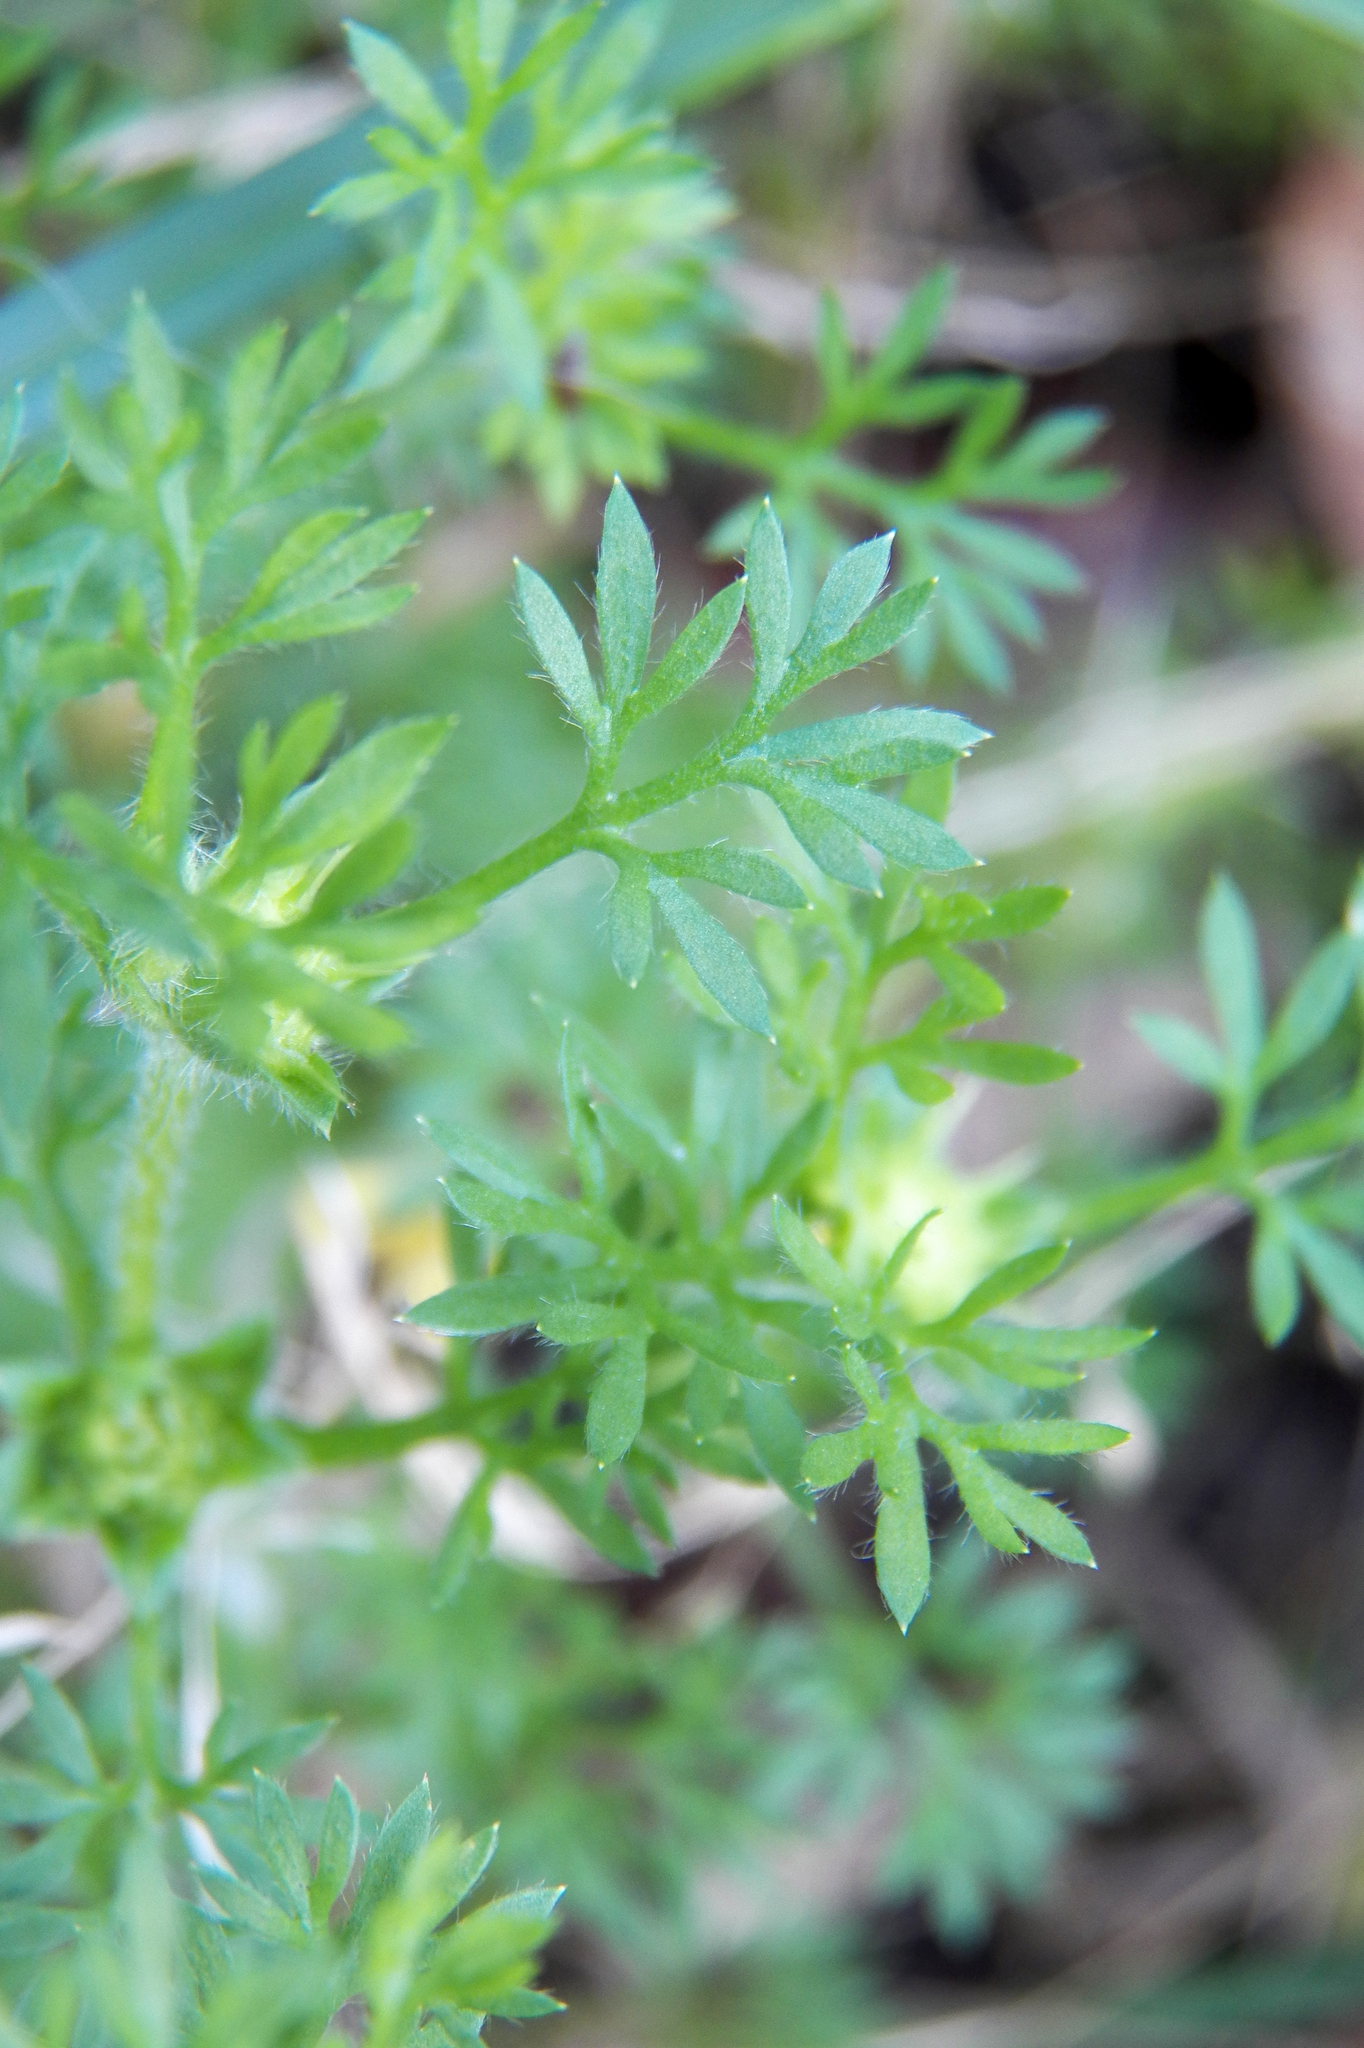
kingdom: Plantae
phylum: Tracheophyta
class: Magnoliopsida
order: Asterales
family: Asteraceae
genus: Soliva
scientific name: Soliva sessilis
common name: Field burrweed
